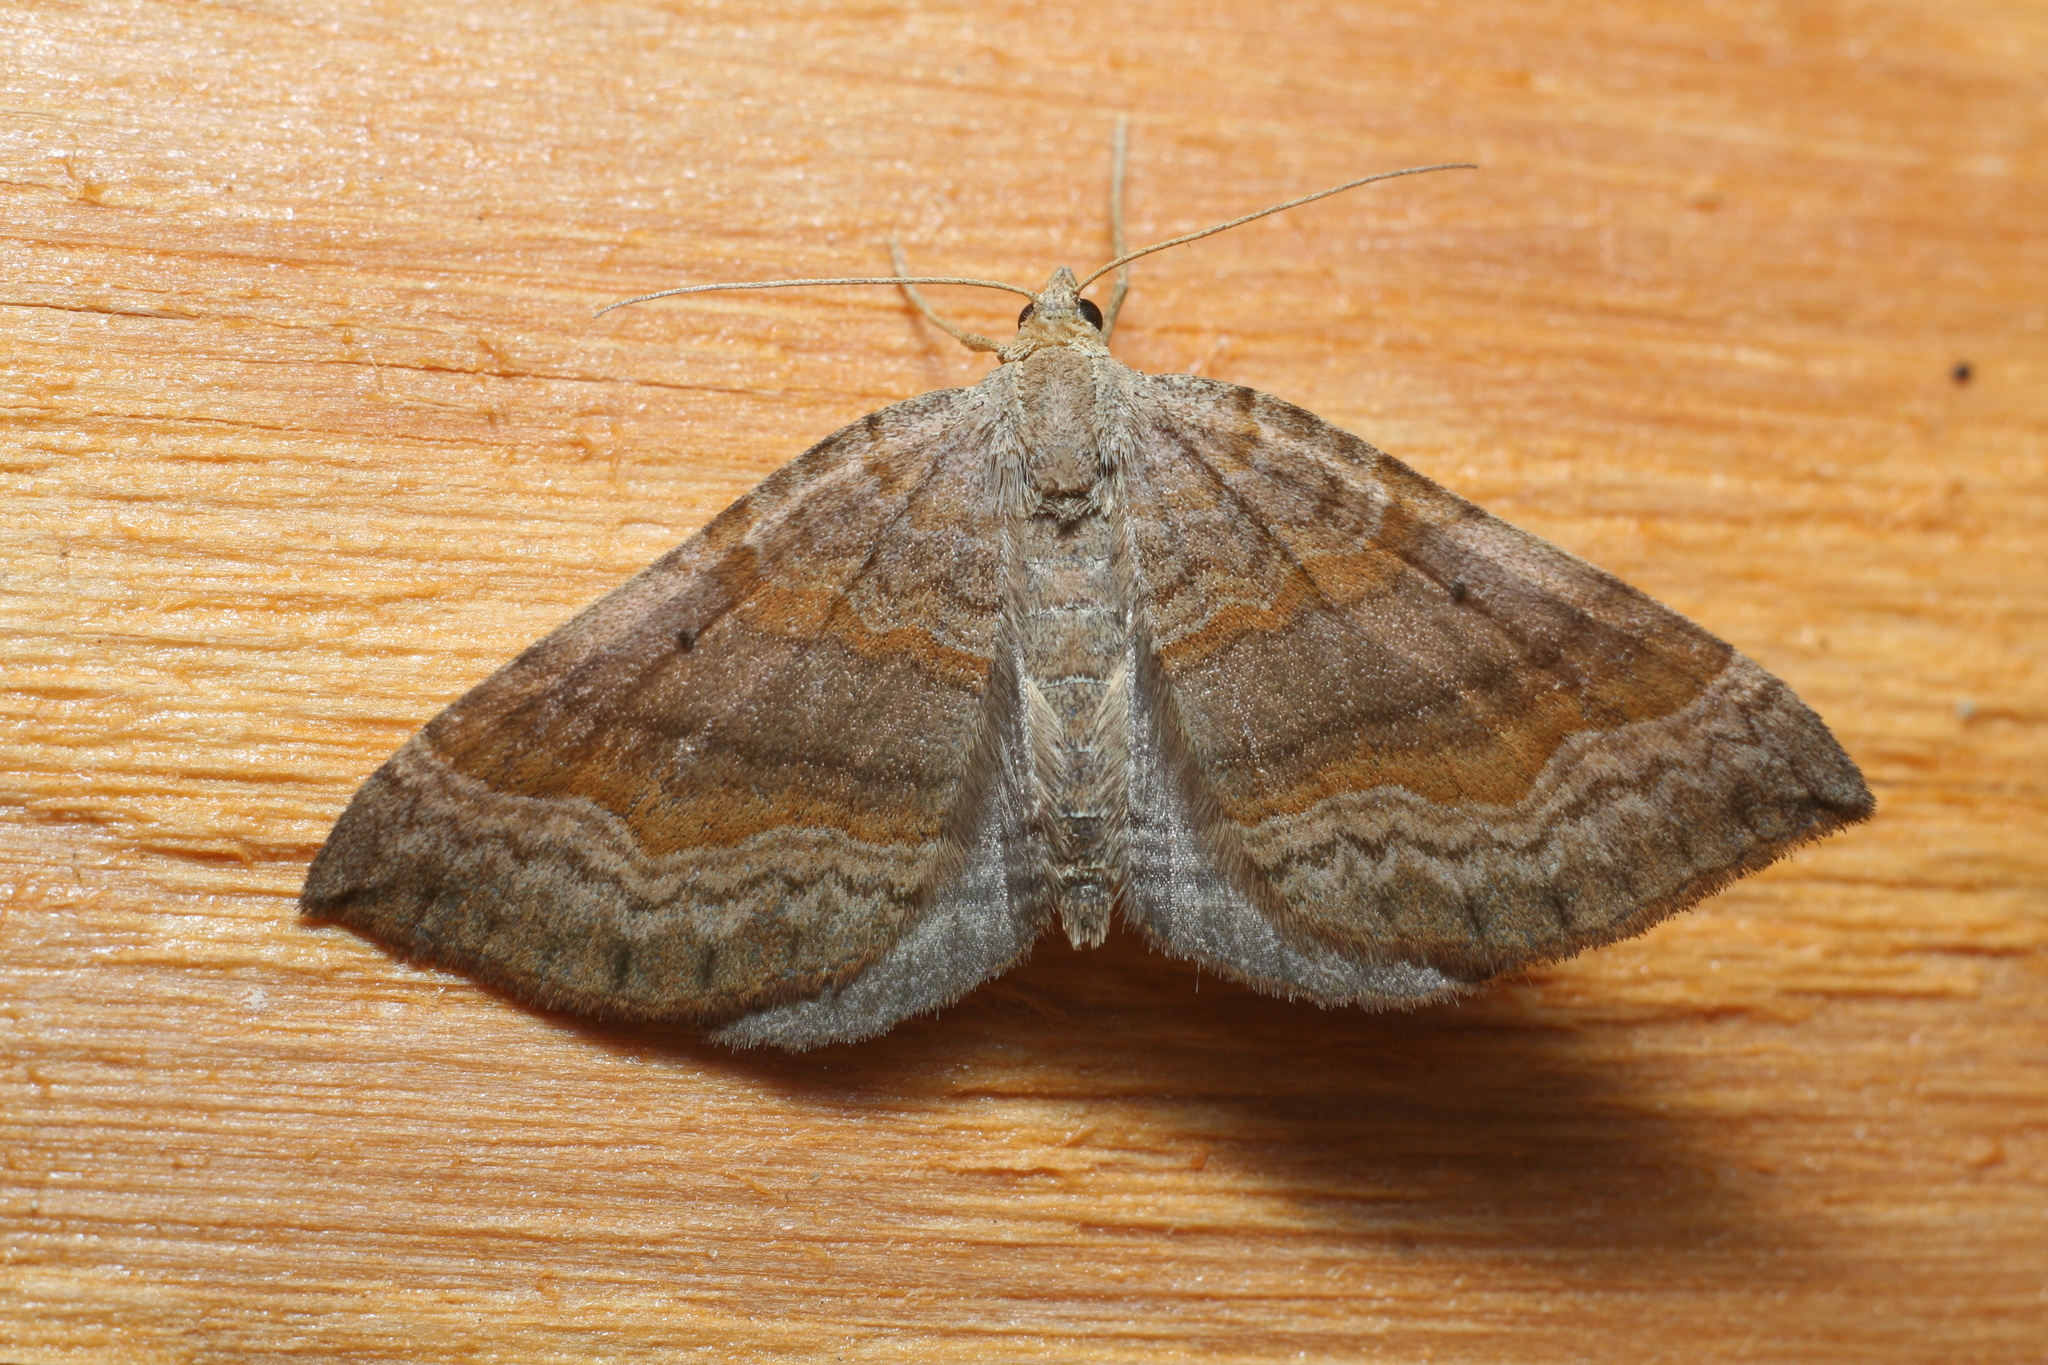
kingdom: Animalia
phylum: Arthropoda
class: Insecta
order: Lepidoptera
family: Geometridae
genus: Scotopteryx
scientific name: Scotopteryx chenopodiata
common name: Shaded broad-bar
